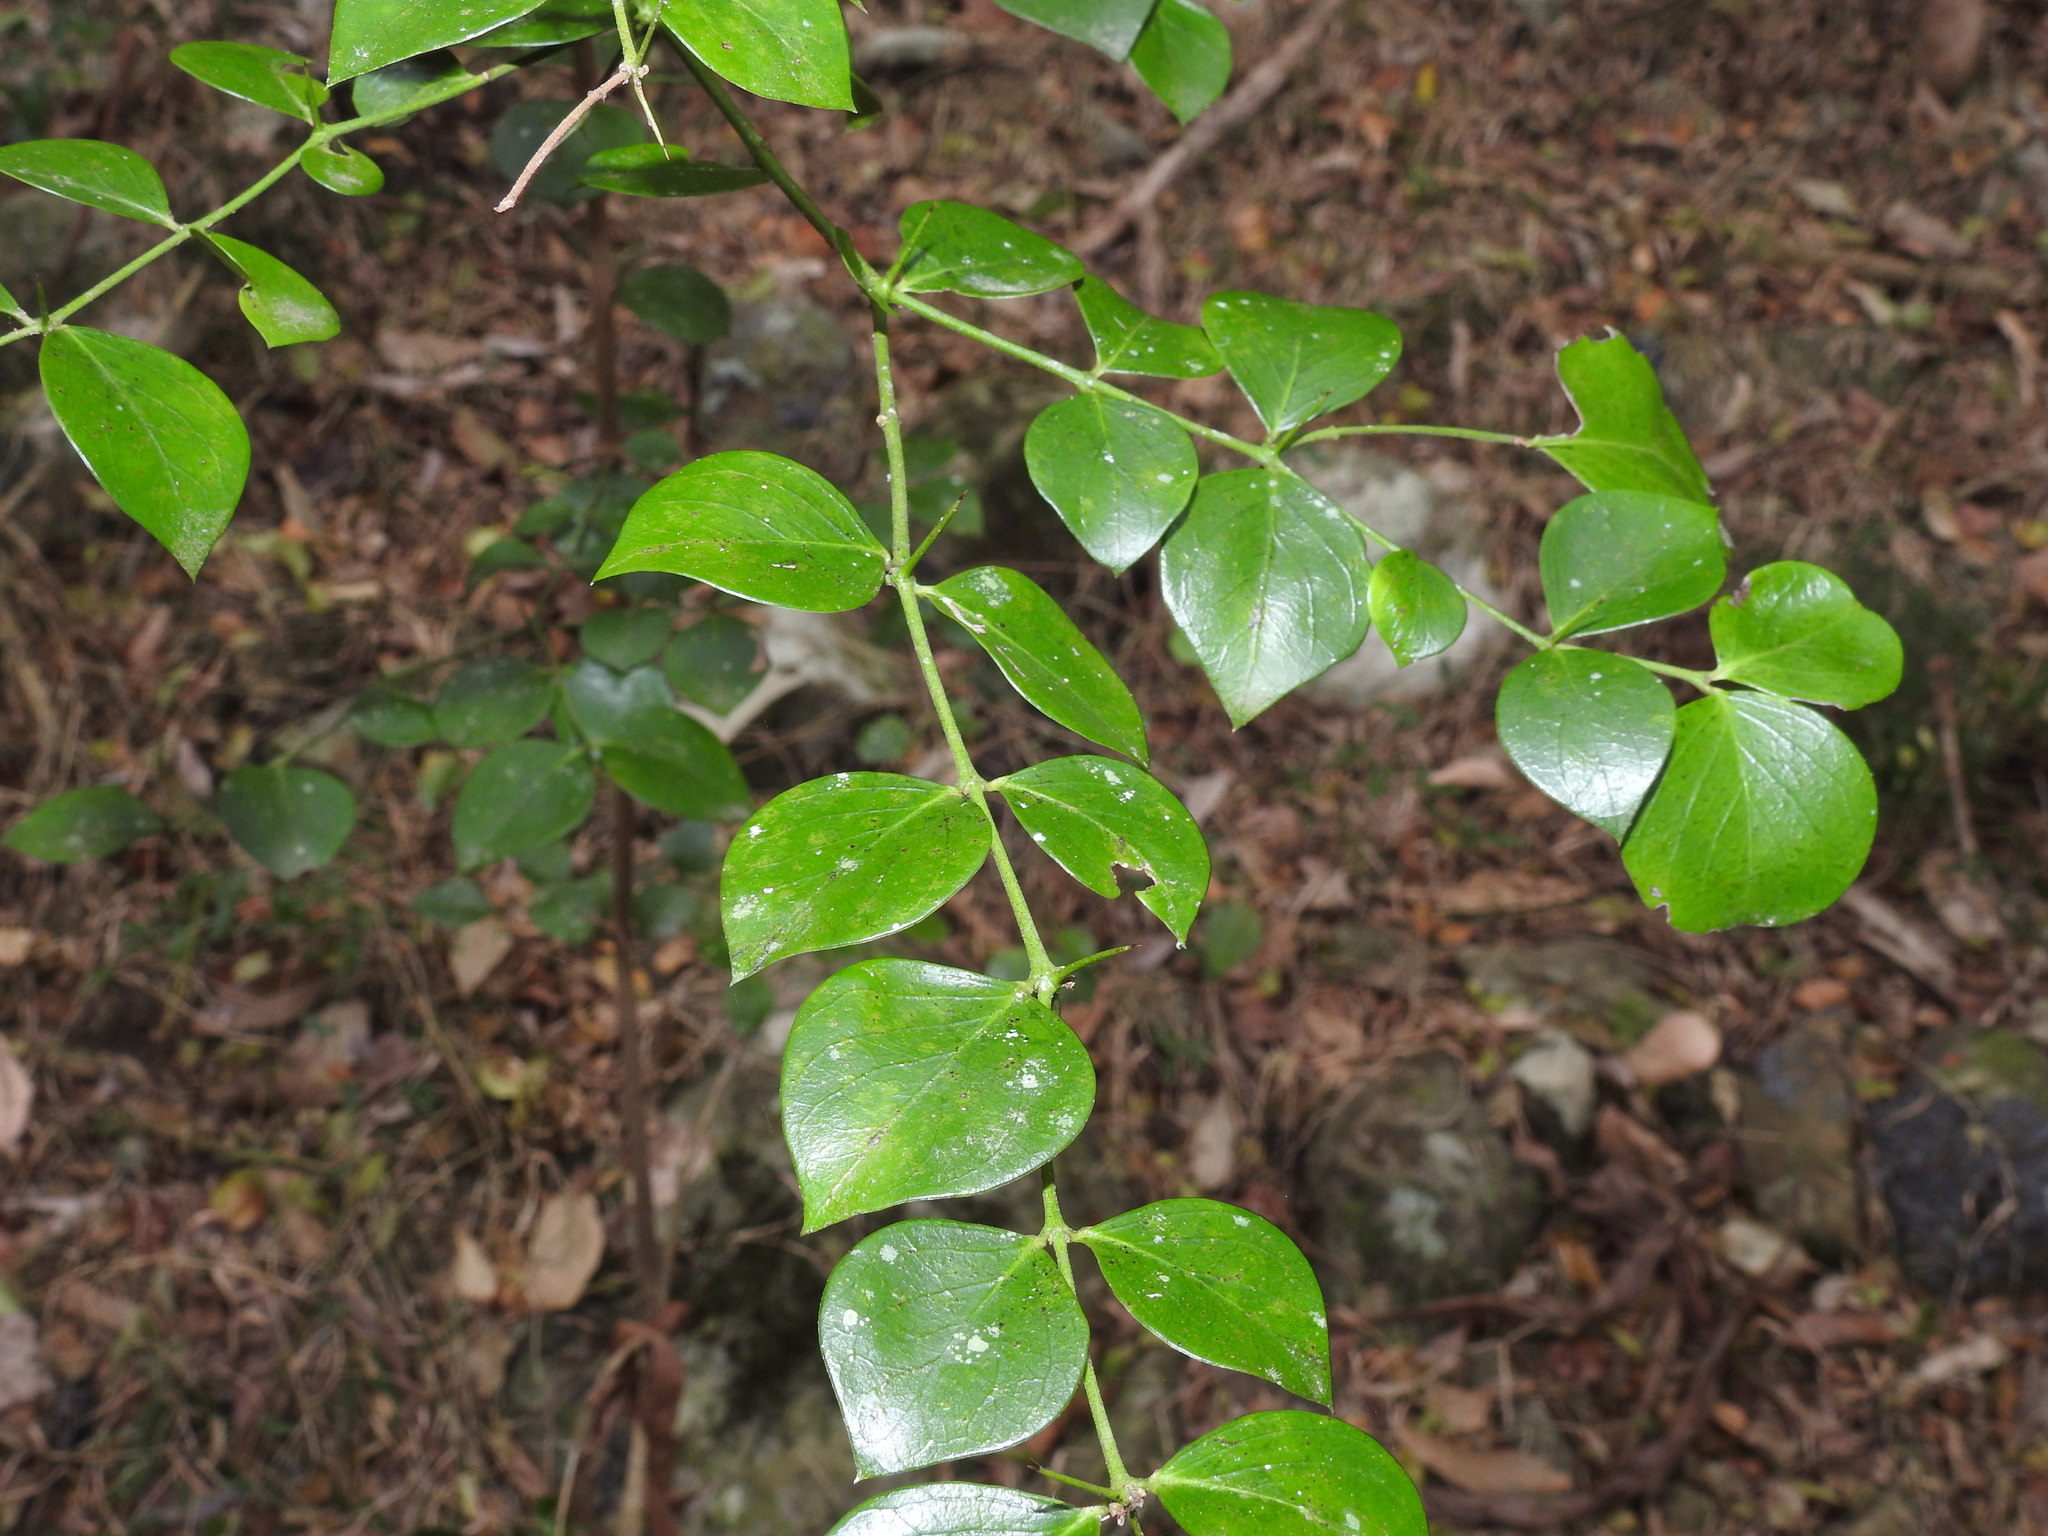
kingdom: Plantae
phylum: Tracheophyta
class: Magnoliopsida
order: Gentianales
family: Apocynaceae
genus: Carissa
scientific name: Carissa ovata
